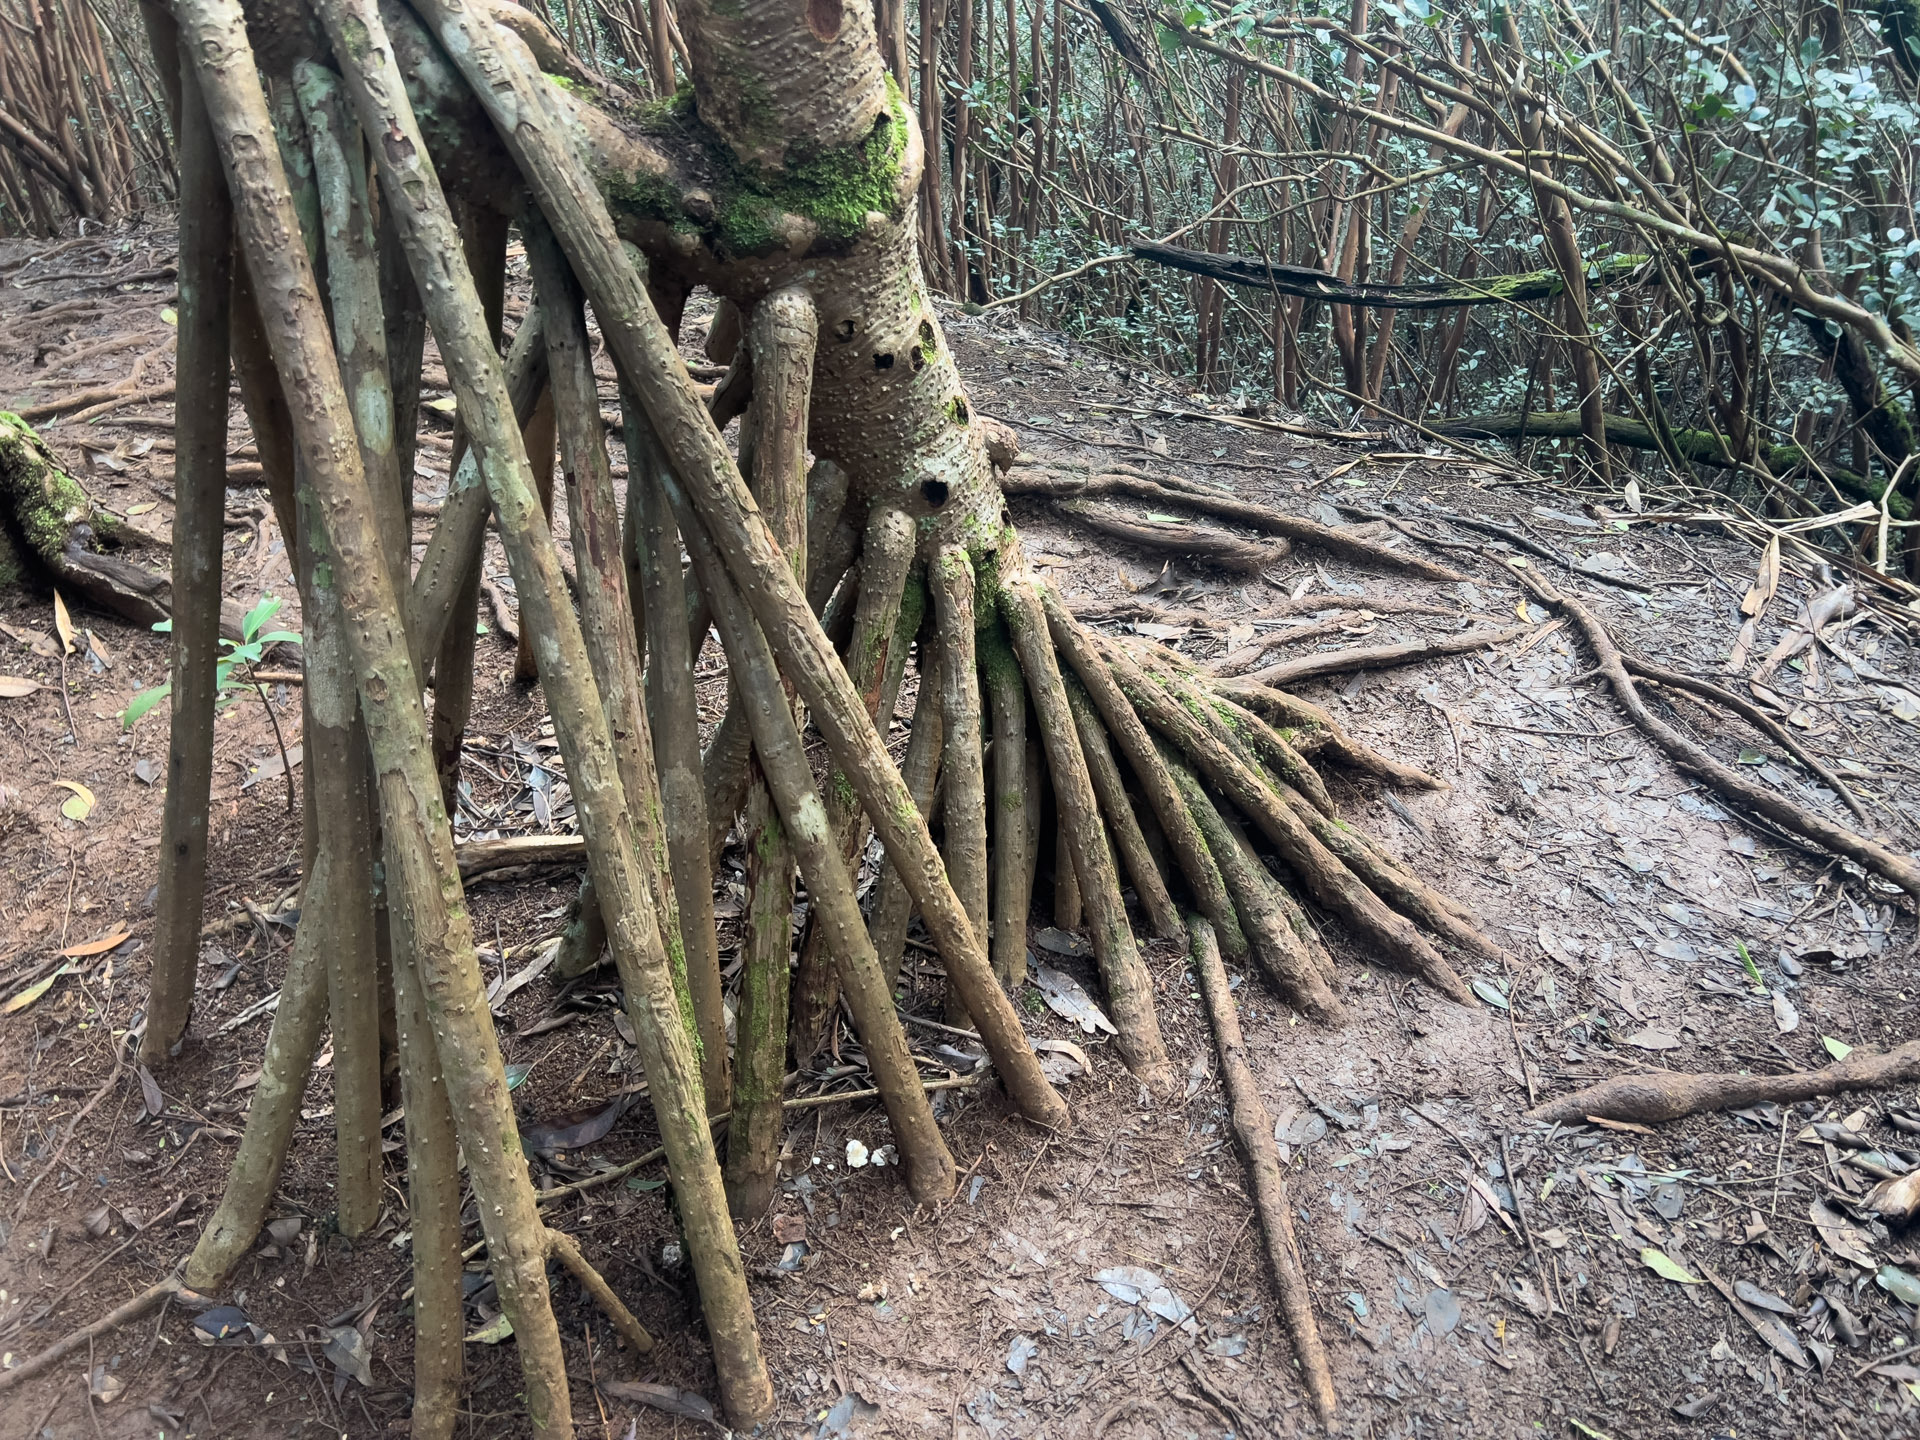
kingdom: Plantae
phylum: Tracheophyta
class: Liliopsida
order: Pandanales
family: Pandanaceae
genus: Pandanus
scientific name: Pandanus tectorius
